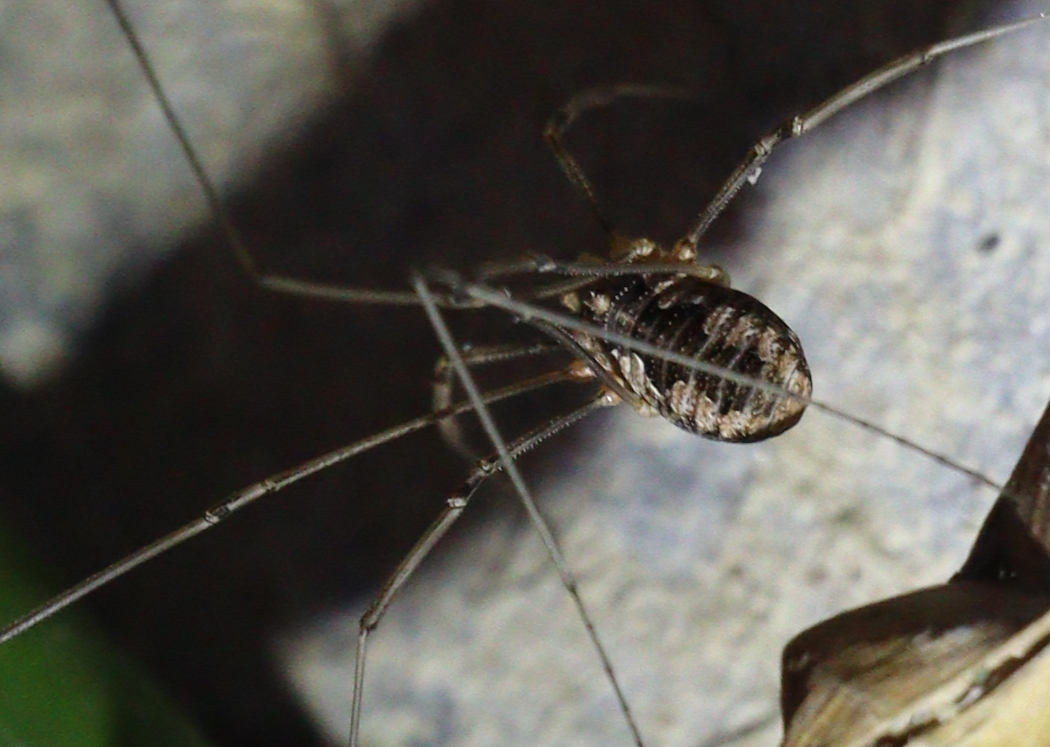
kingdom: Animalia
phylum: Arthropoda
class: Arachnida
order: Opiliones
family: Phalangiidae
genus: Phalangium
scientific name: Phalangium opilio
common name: Daddy longleg
